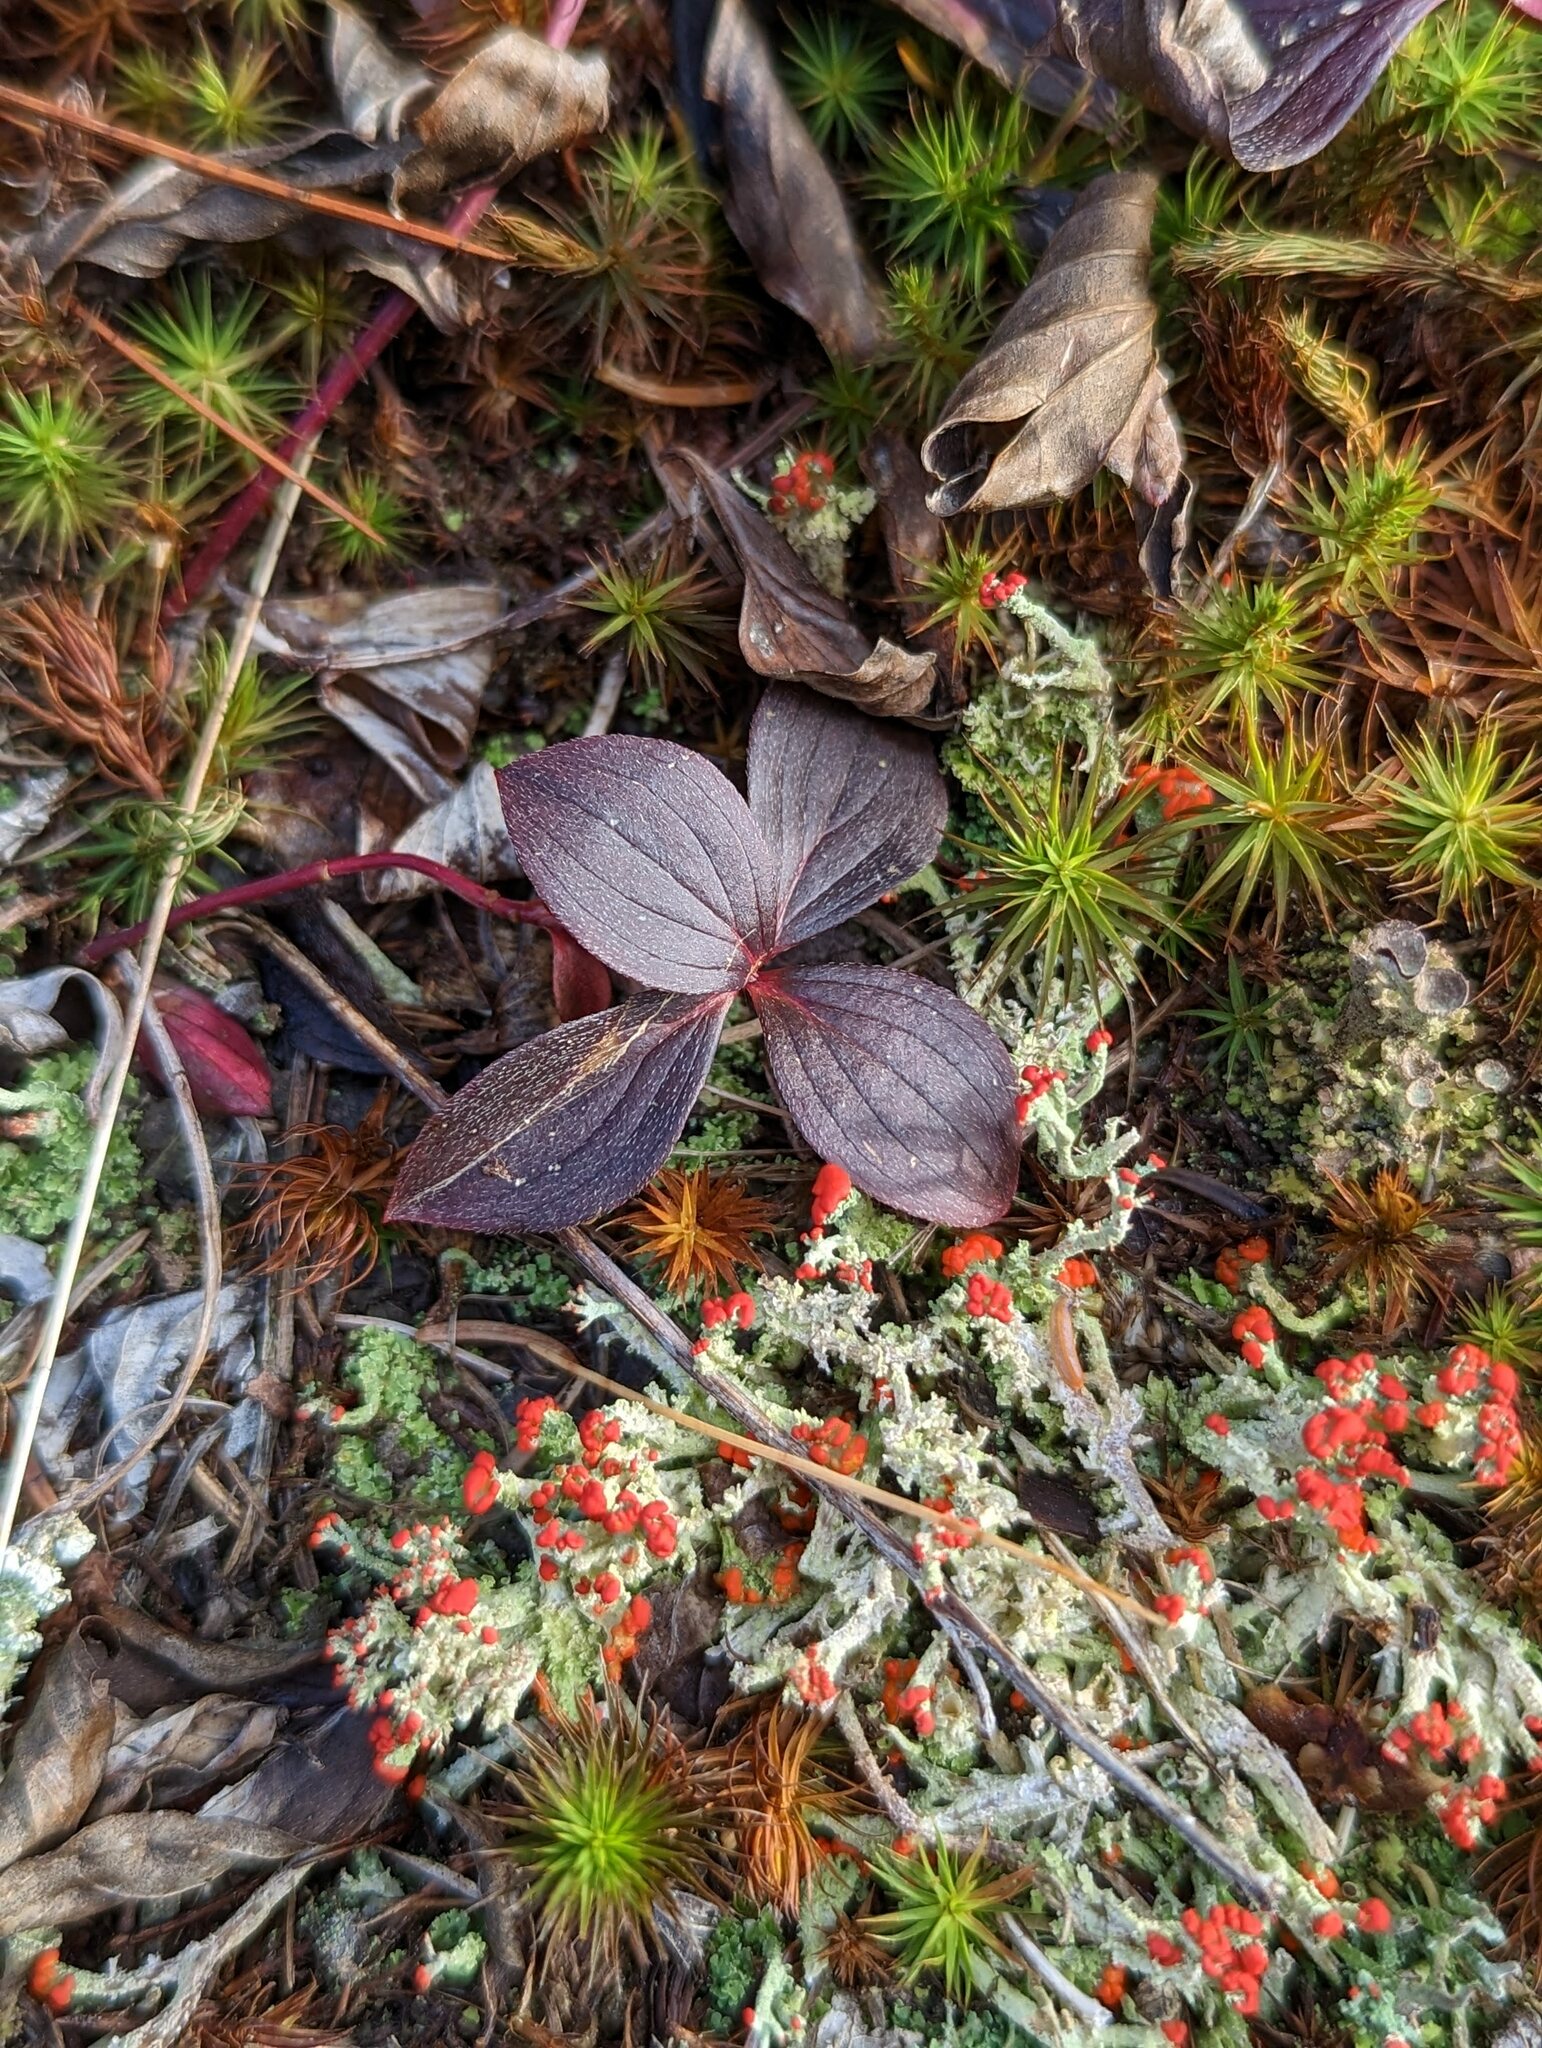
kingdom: Plantae
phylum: Tracheophyta
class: Magnoliopsida
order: Cornales
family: Cornaceae
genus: Cornus
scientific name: Cornus canadensis
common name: Creeping dogwood
